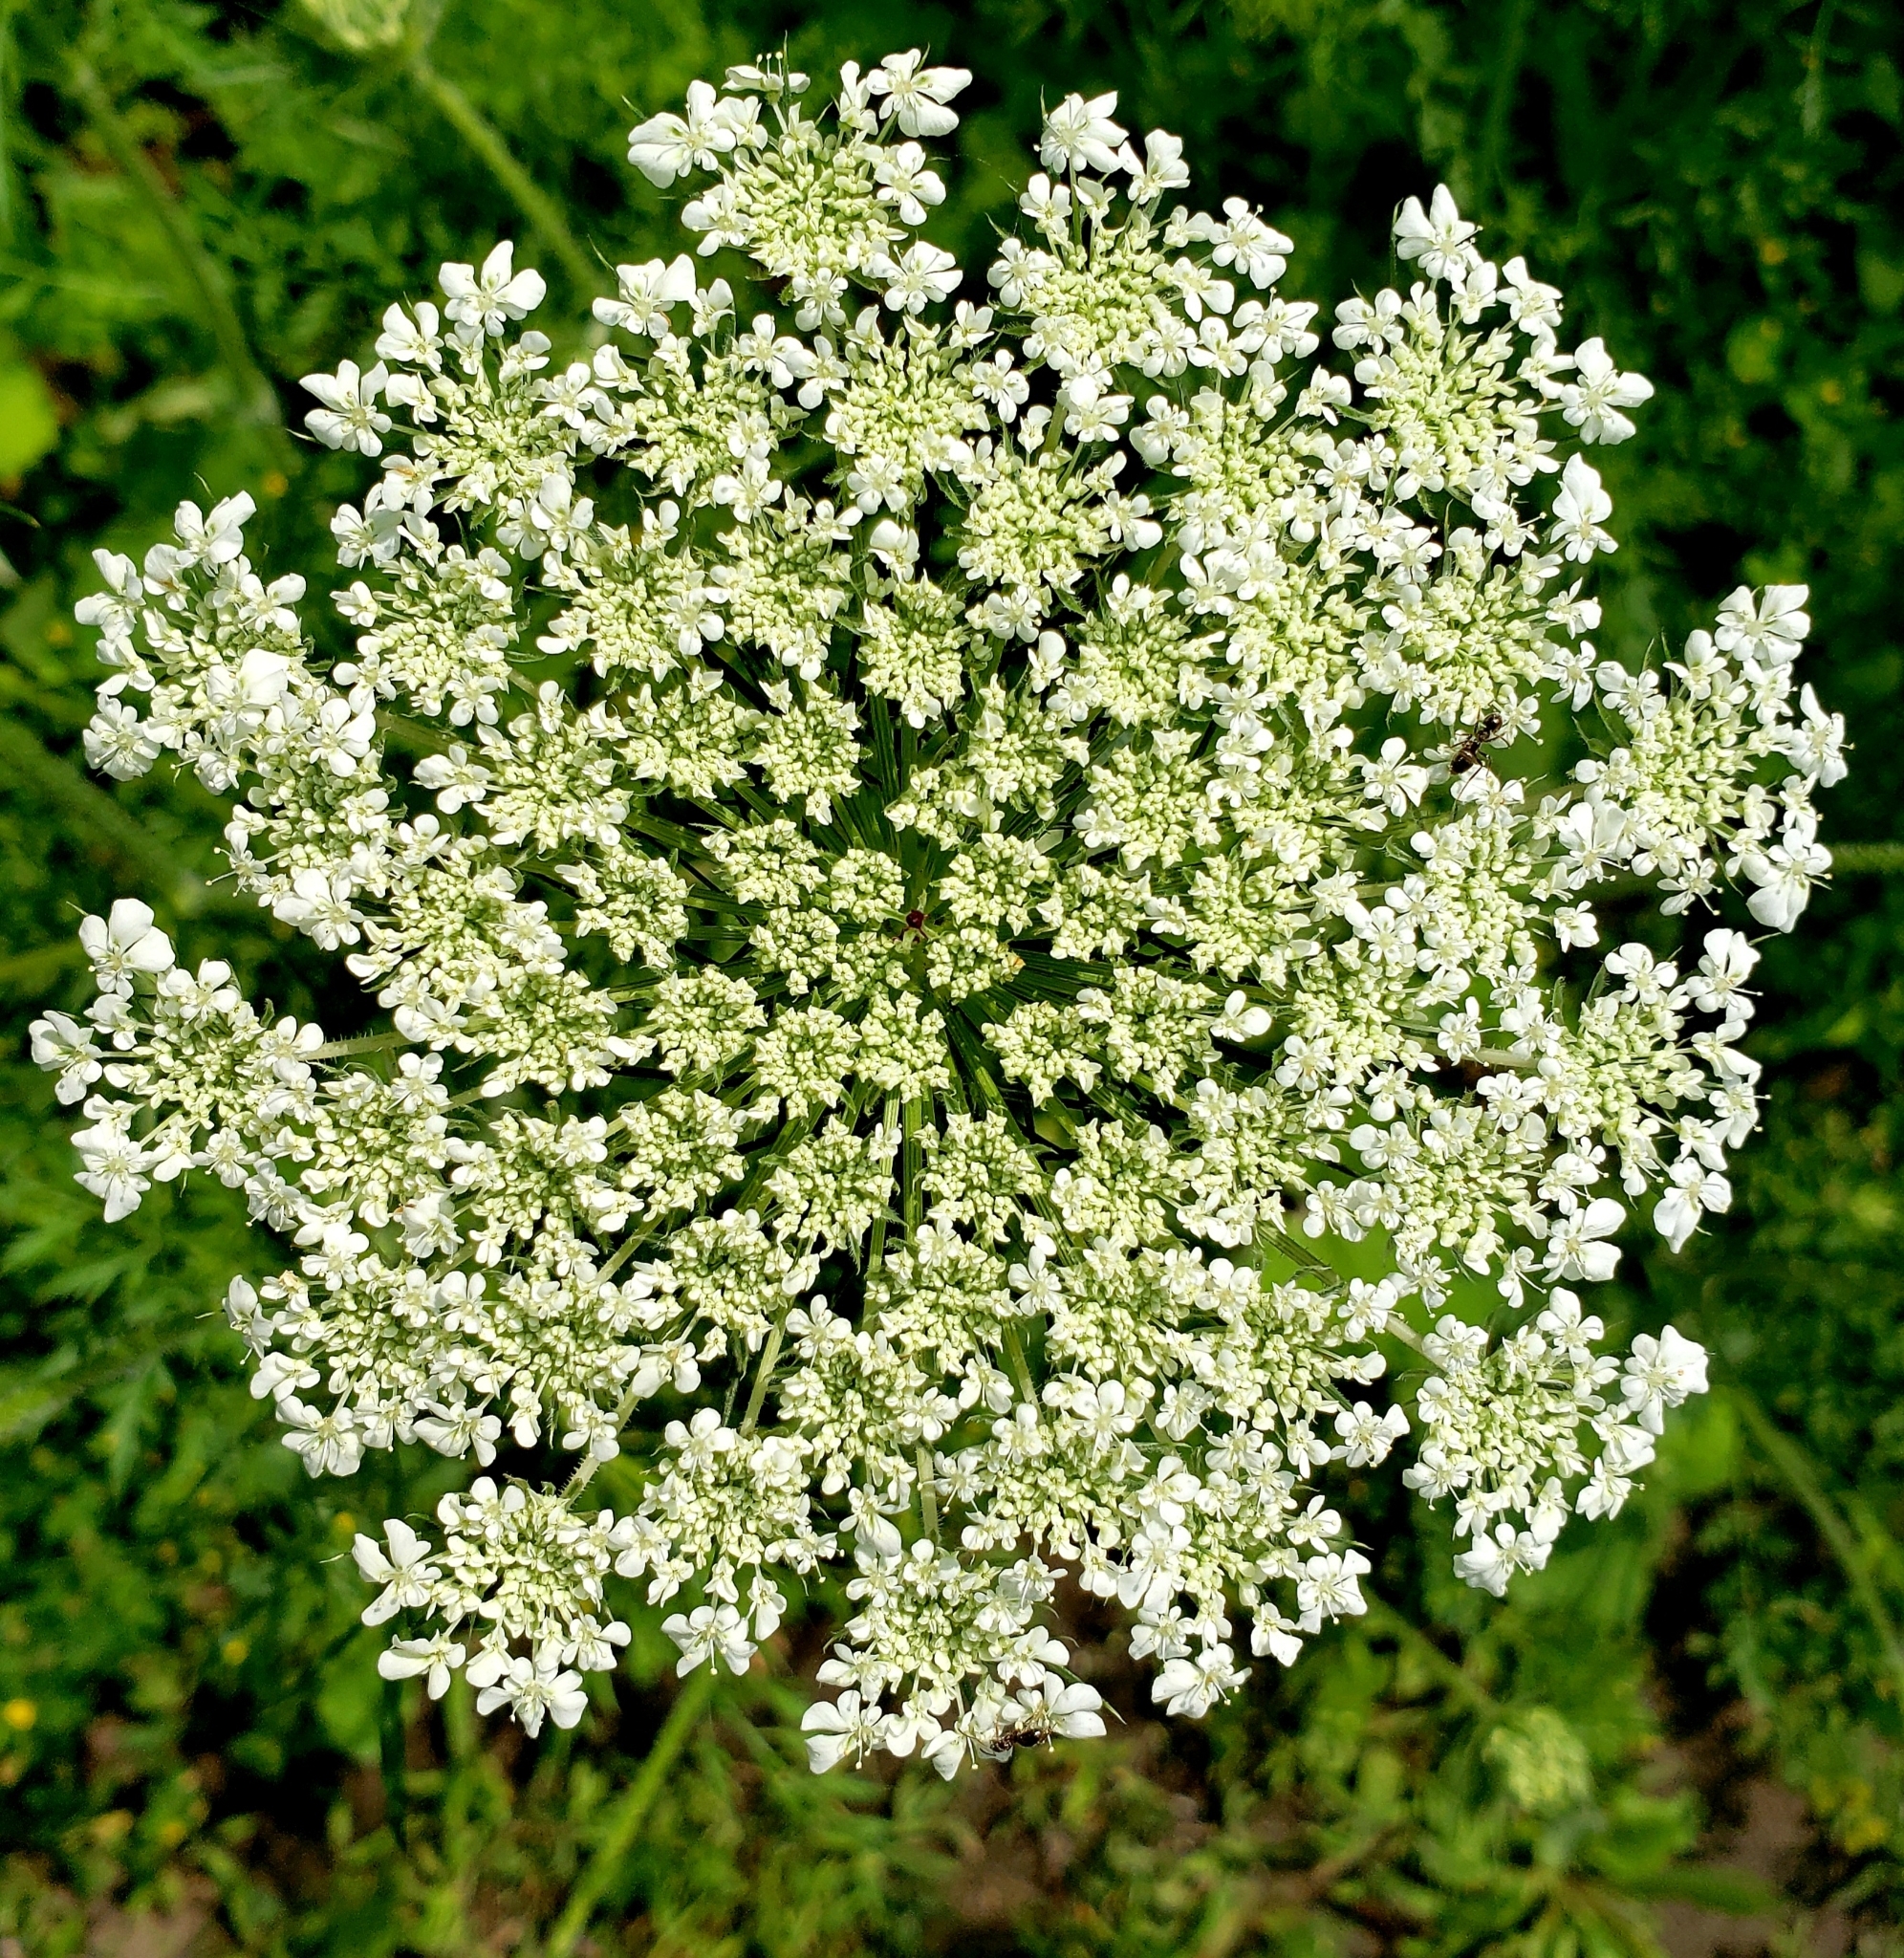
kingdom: Plantae
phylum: Tracheophyta
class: Magnoliopsida
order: Apiales
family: Apiaceae
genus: Daucus
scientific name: Daucus carota
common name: Wild carrot
